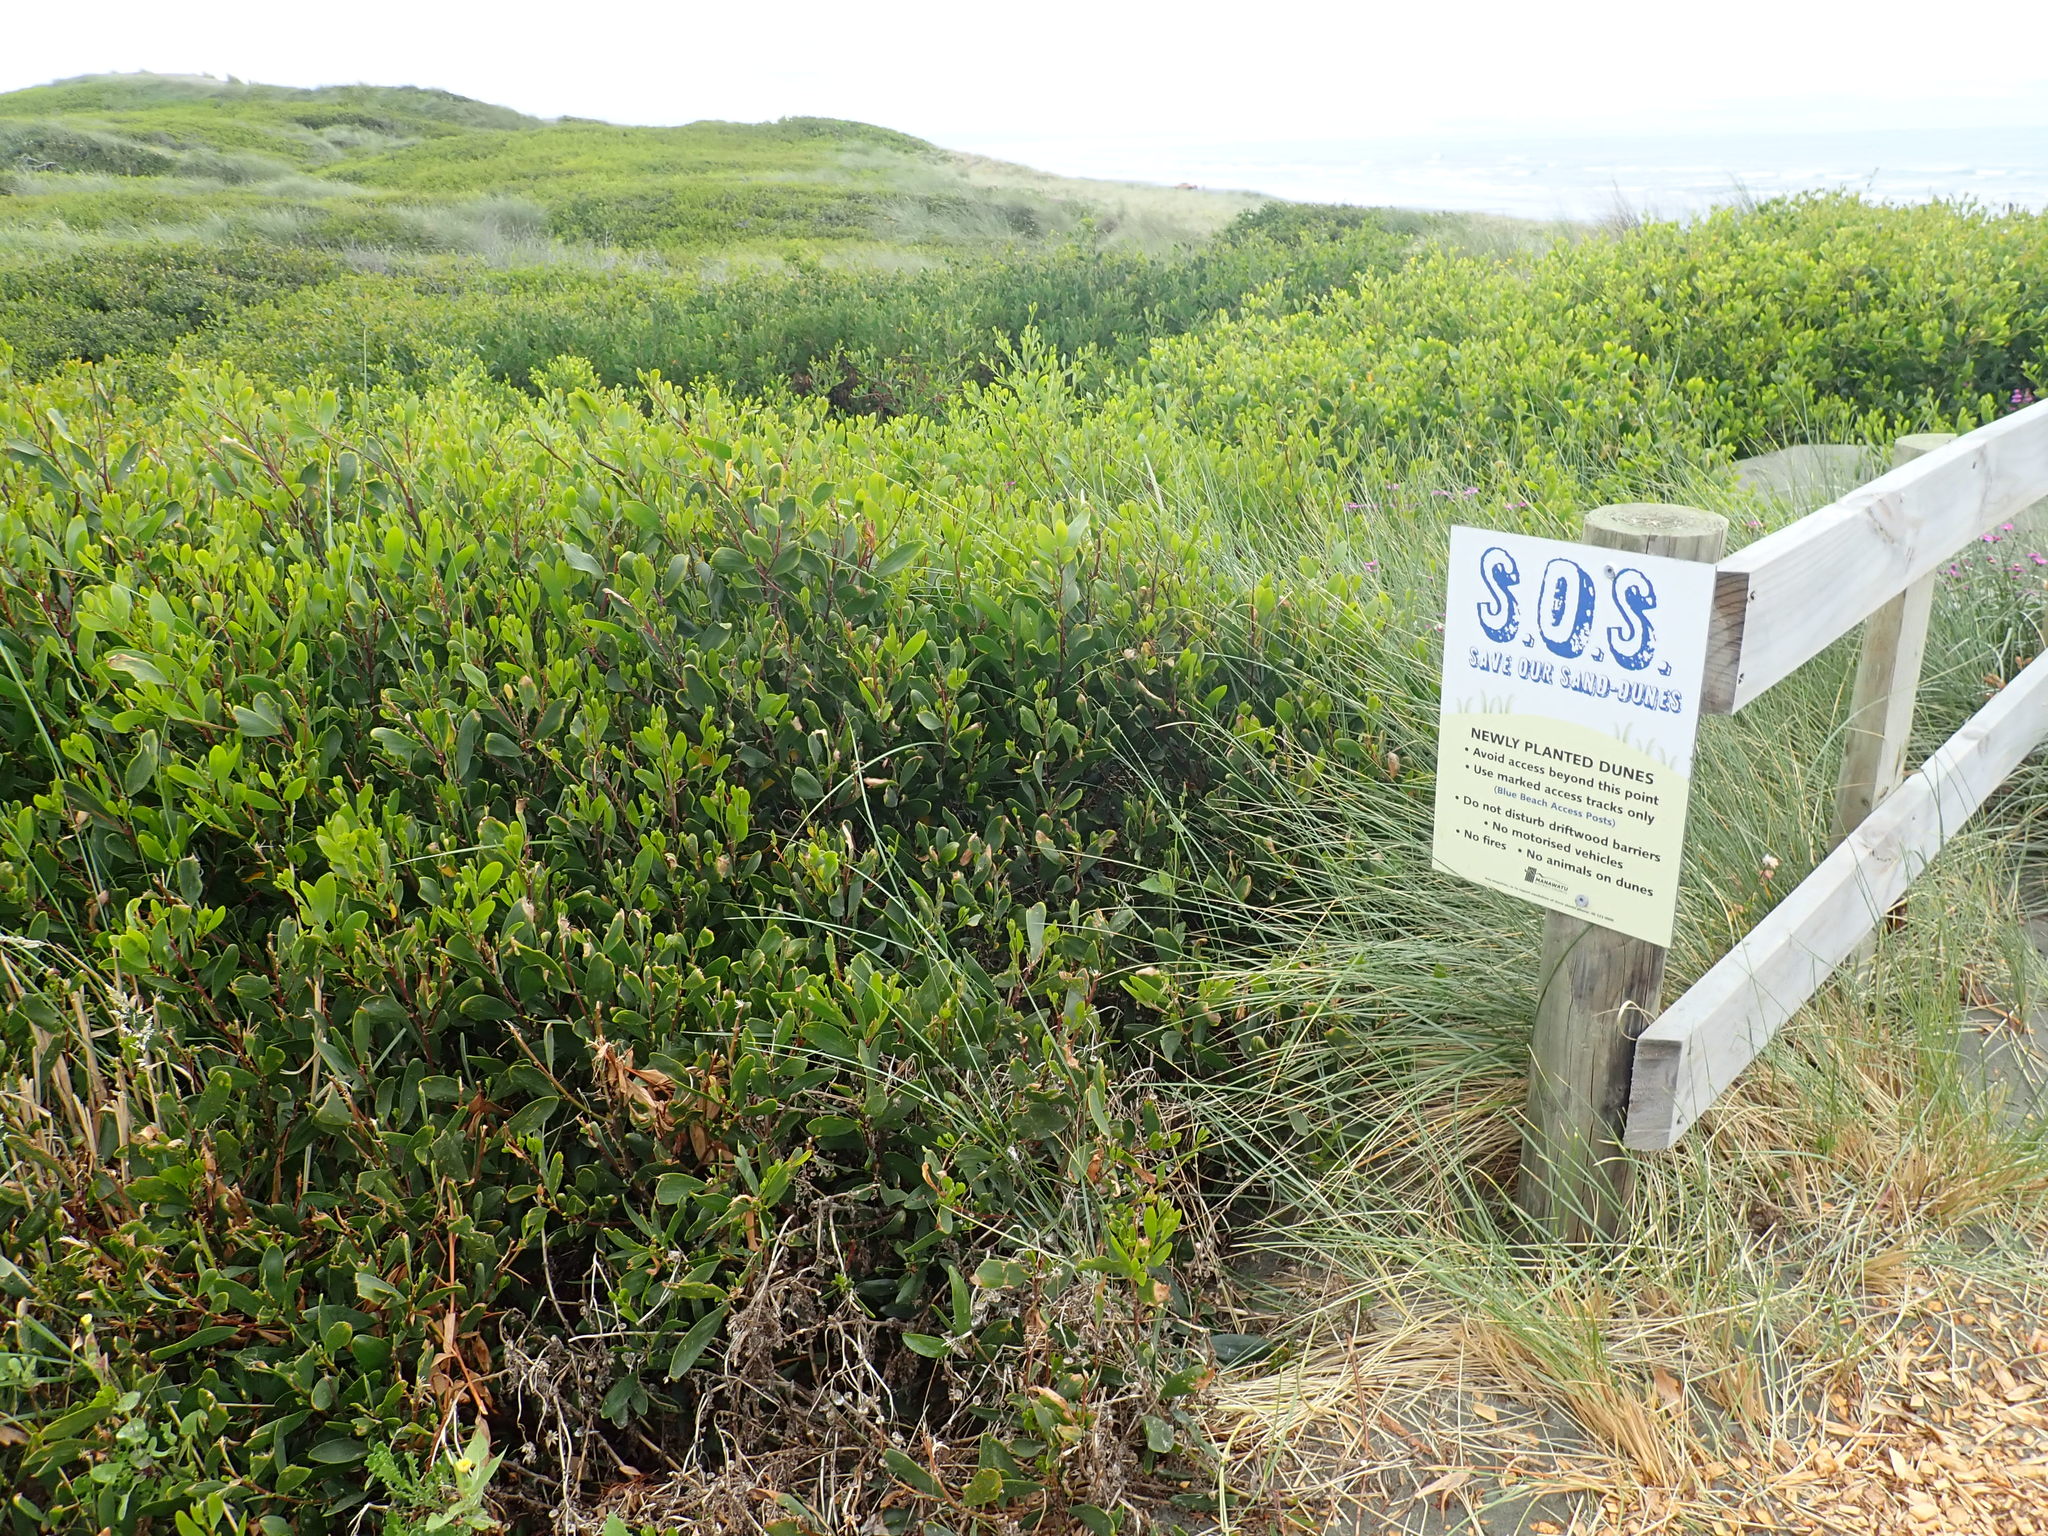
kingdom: Plantae
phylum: Tracheophyta
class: Magnoliopsida
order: Fabales
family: Fabaceae
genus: Acacia
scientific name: Acacia longifolia
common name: Sydney golden wattle
